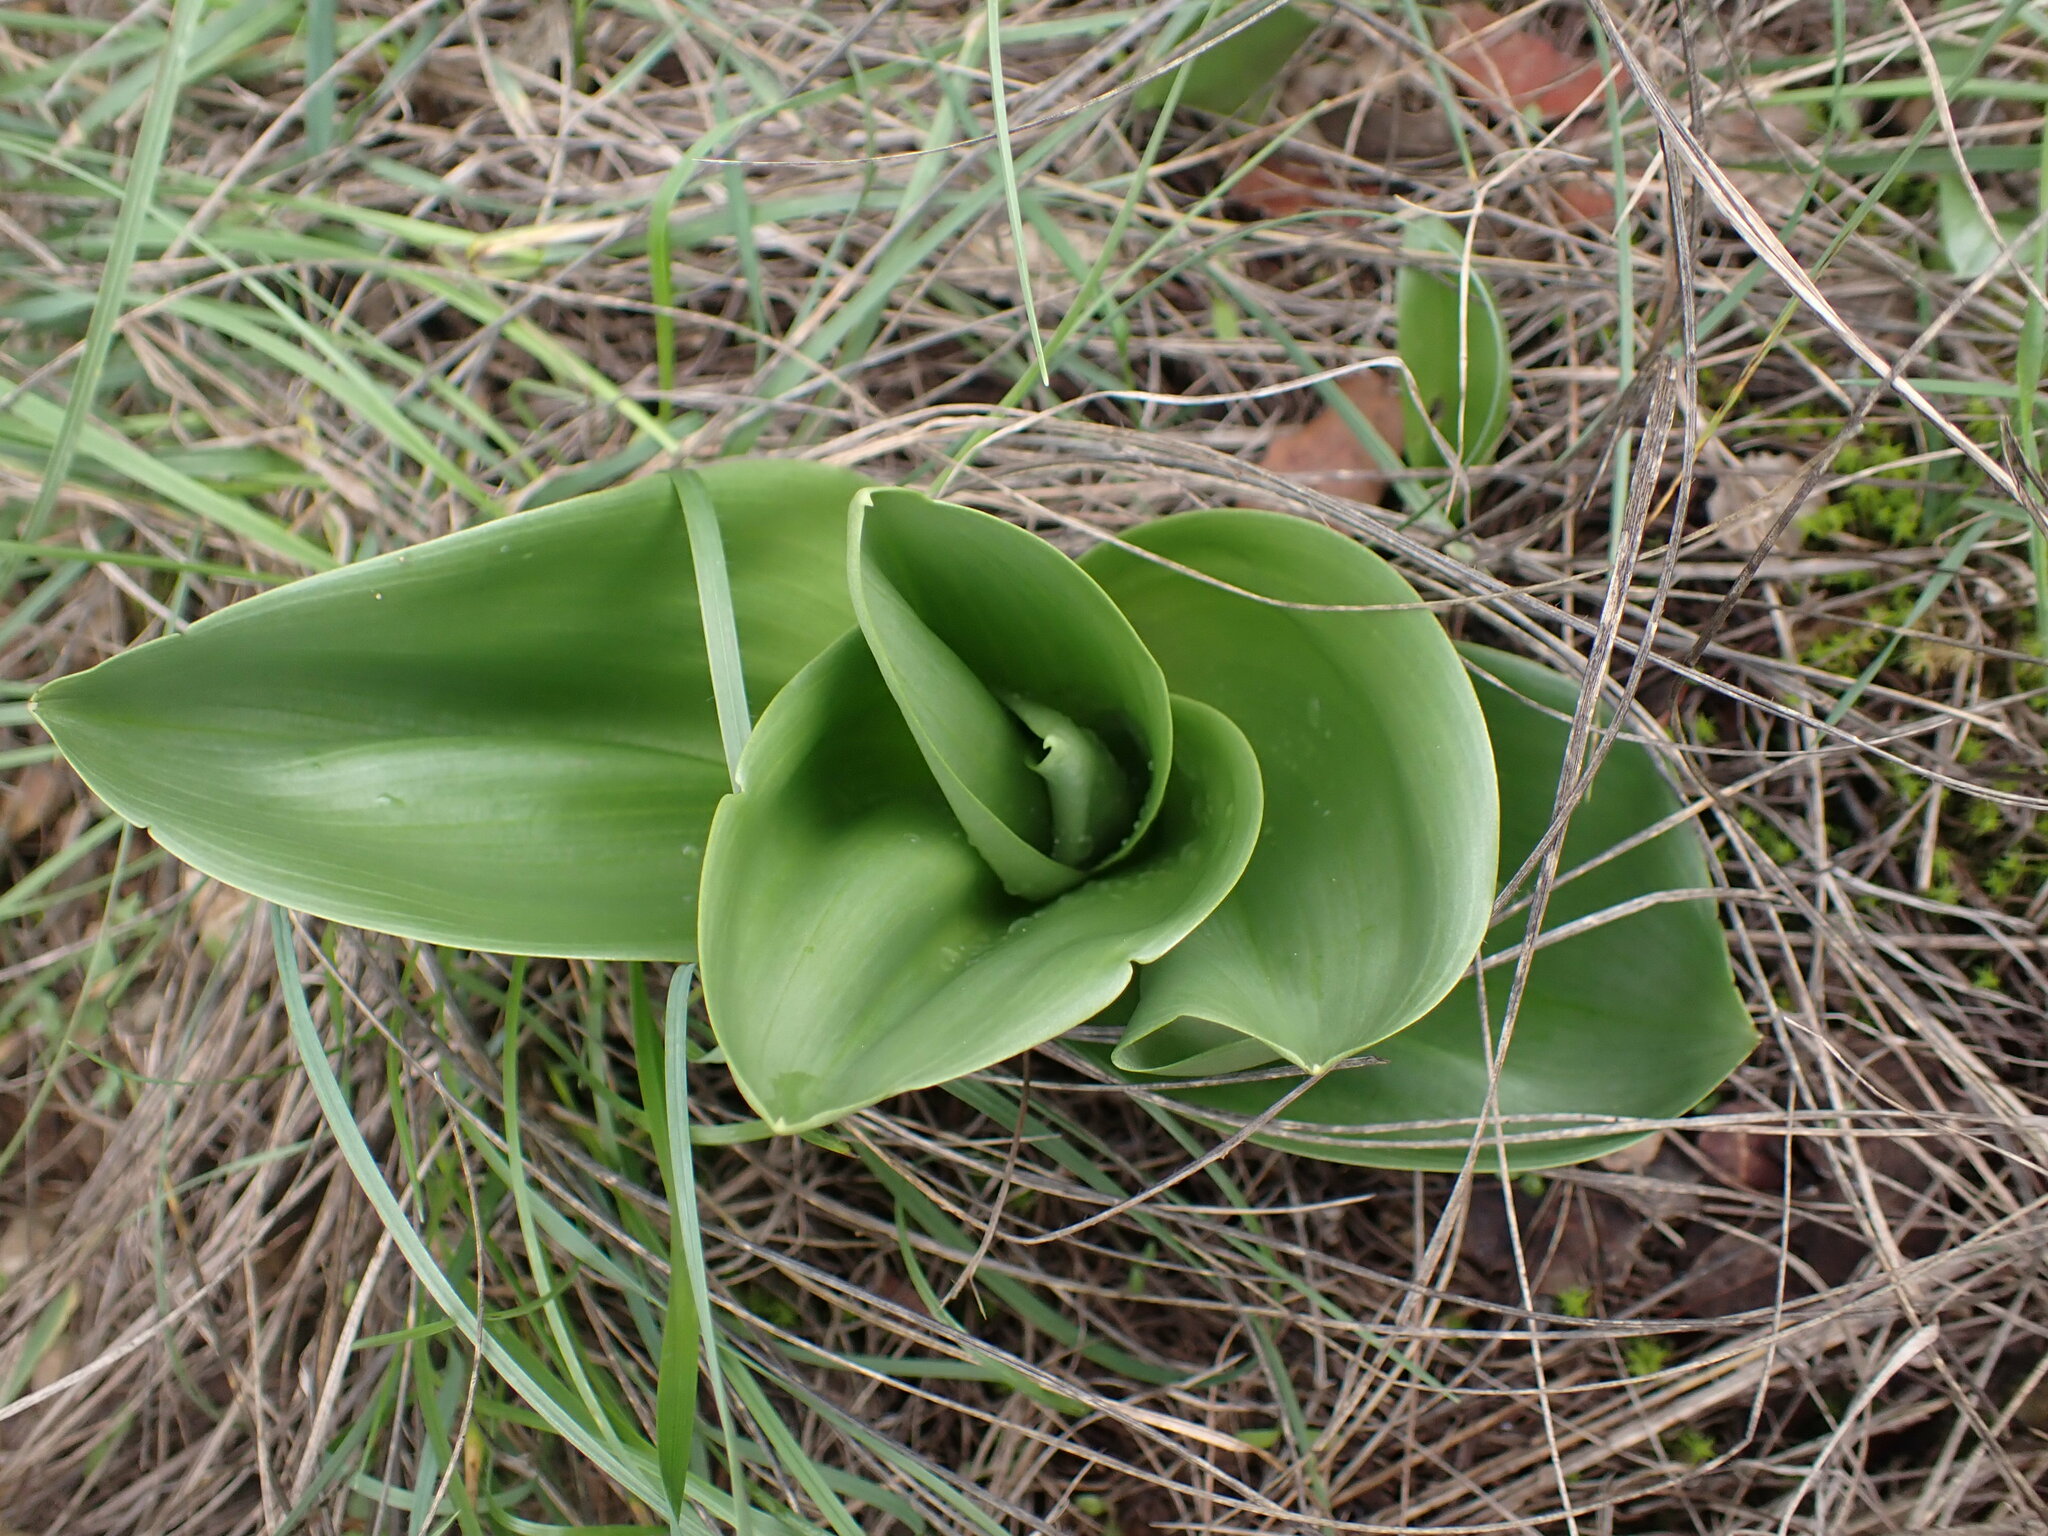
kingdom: Plantae
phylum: Tracheophyta
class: Liliopsida
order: Asparagales
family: Orchidaceae
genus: Himantoglossum
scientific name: Himantoglossum robertianum
